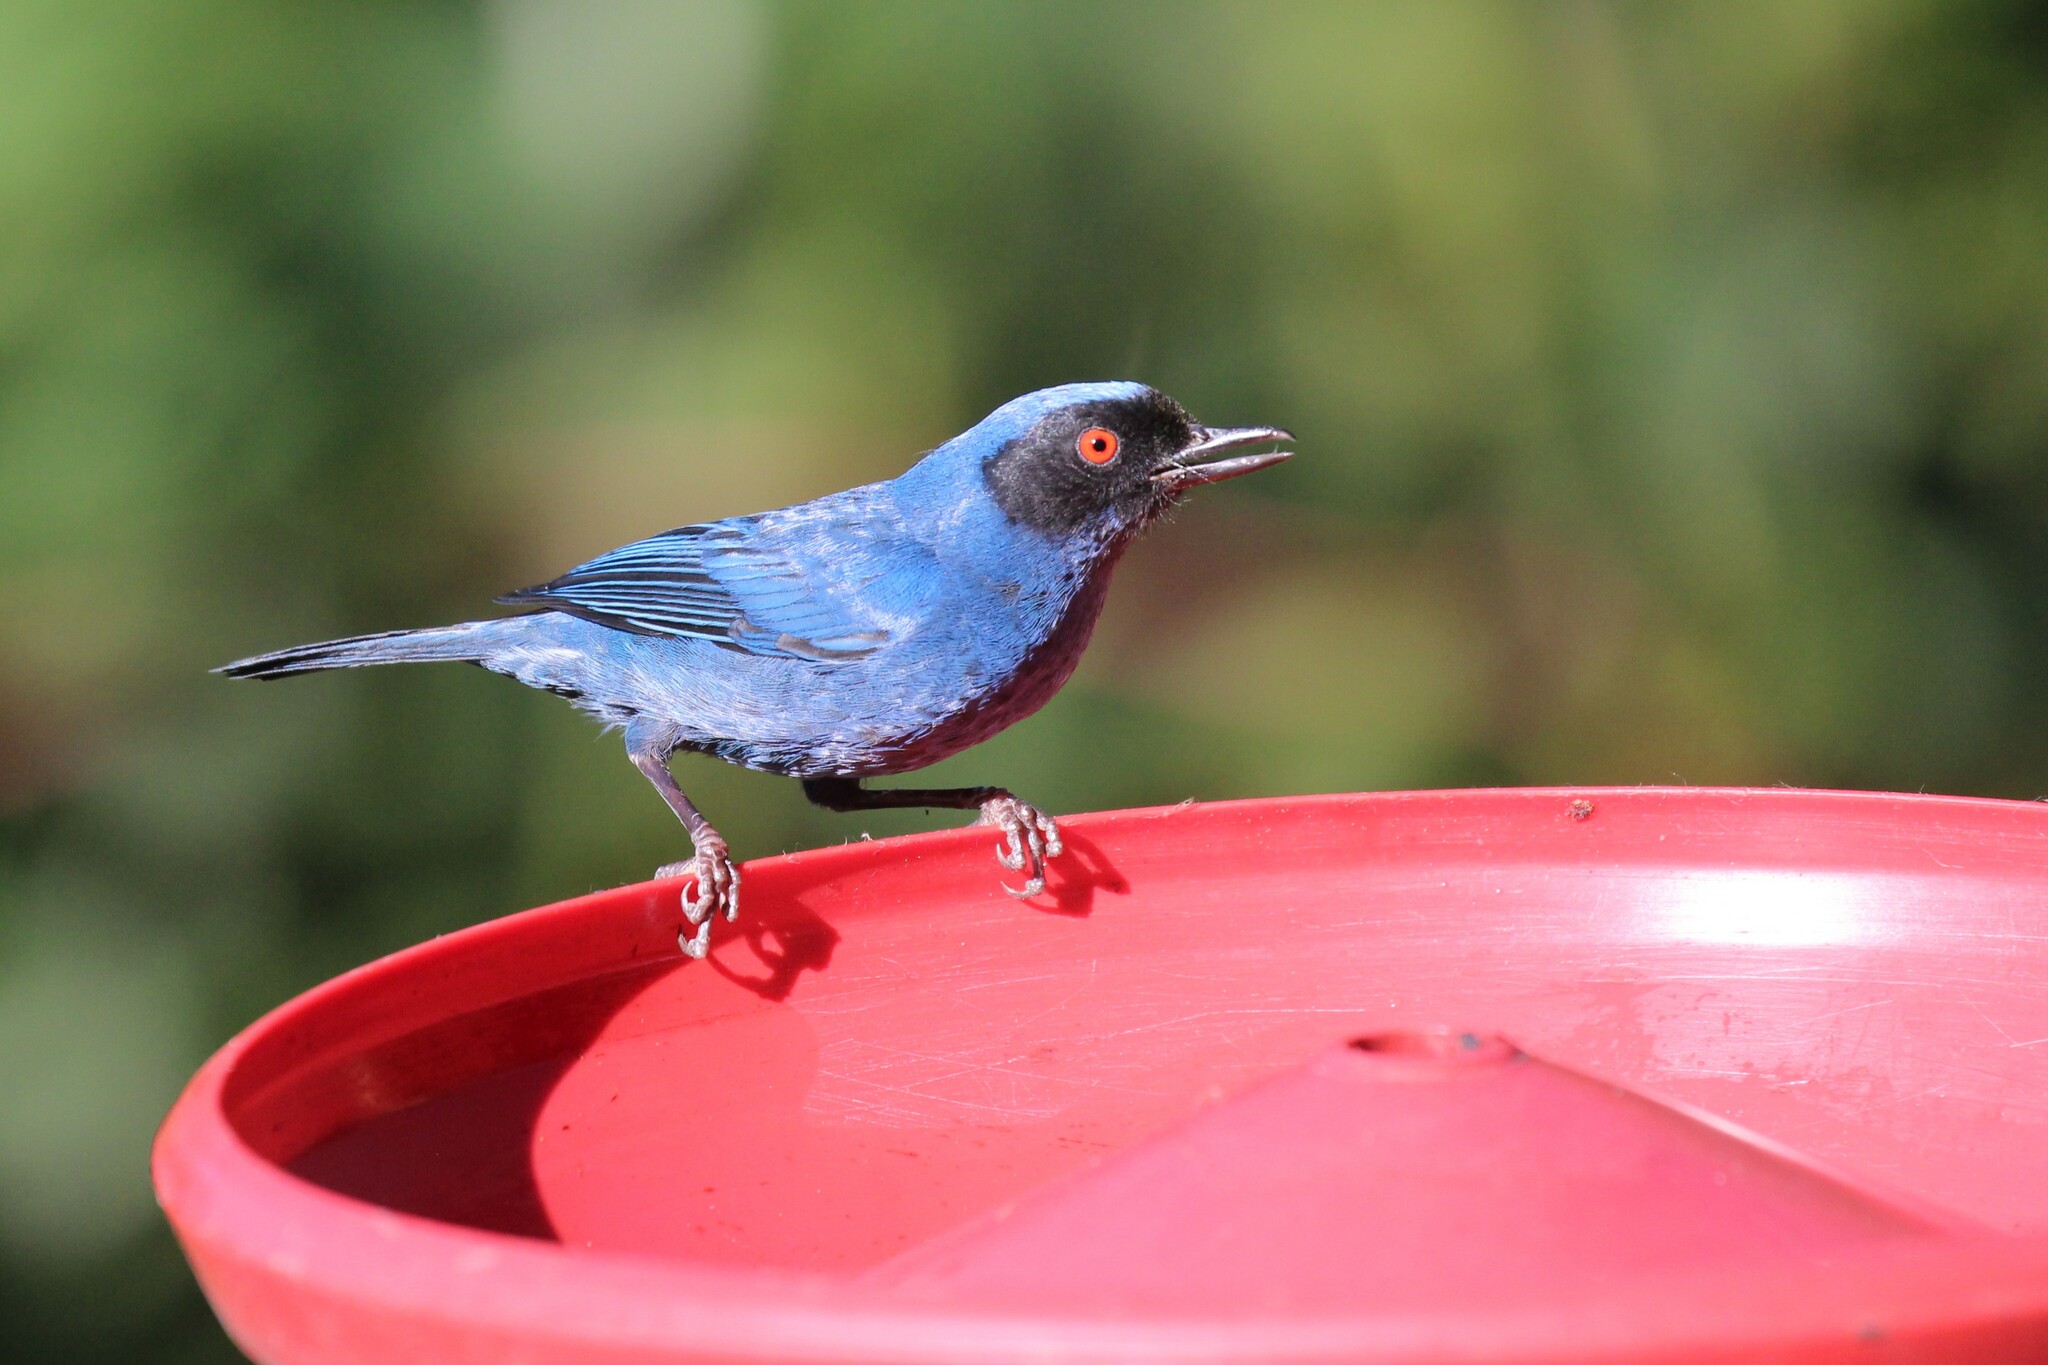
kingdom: Animalia
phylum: Chordata
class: Aves
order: Passeriformes
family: Thraupidae
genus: Diglossa
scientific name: Diglossa cyanea
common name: Masked flowerpiercer
